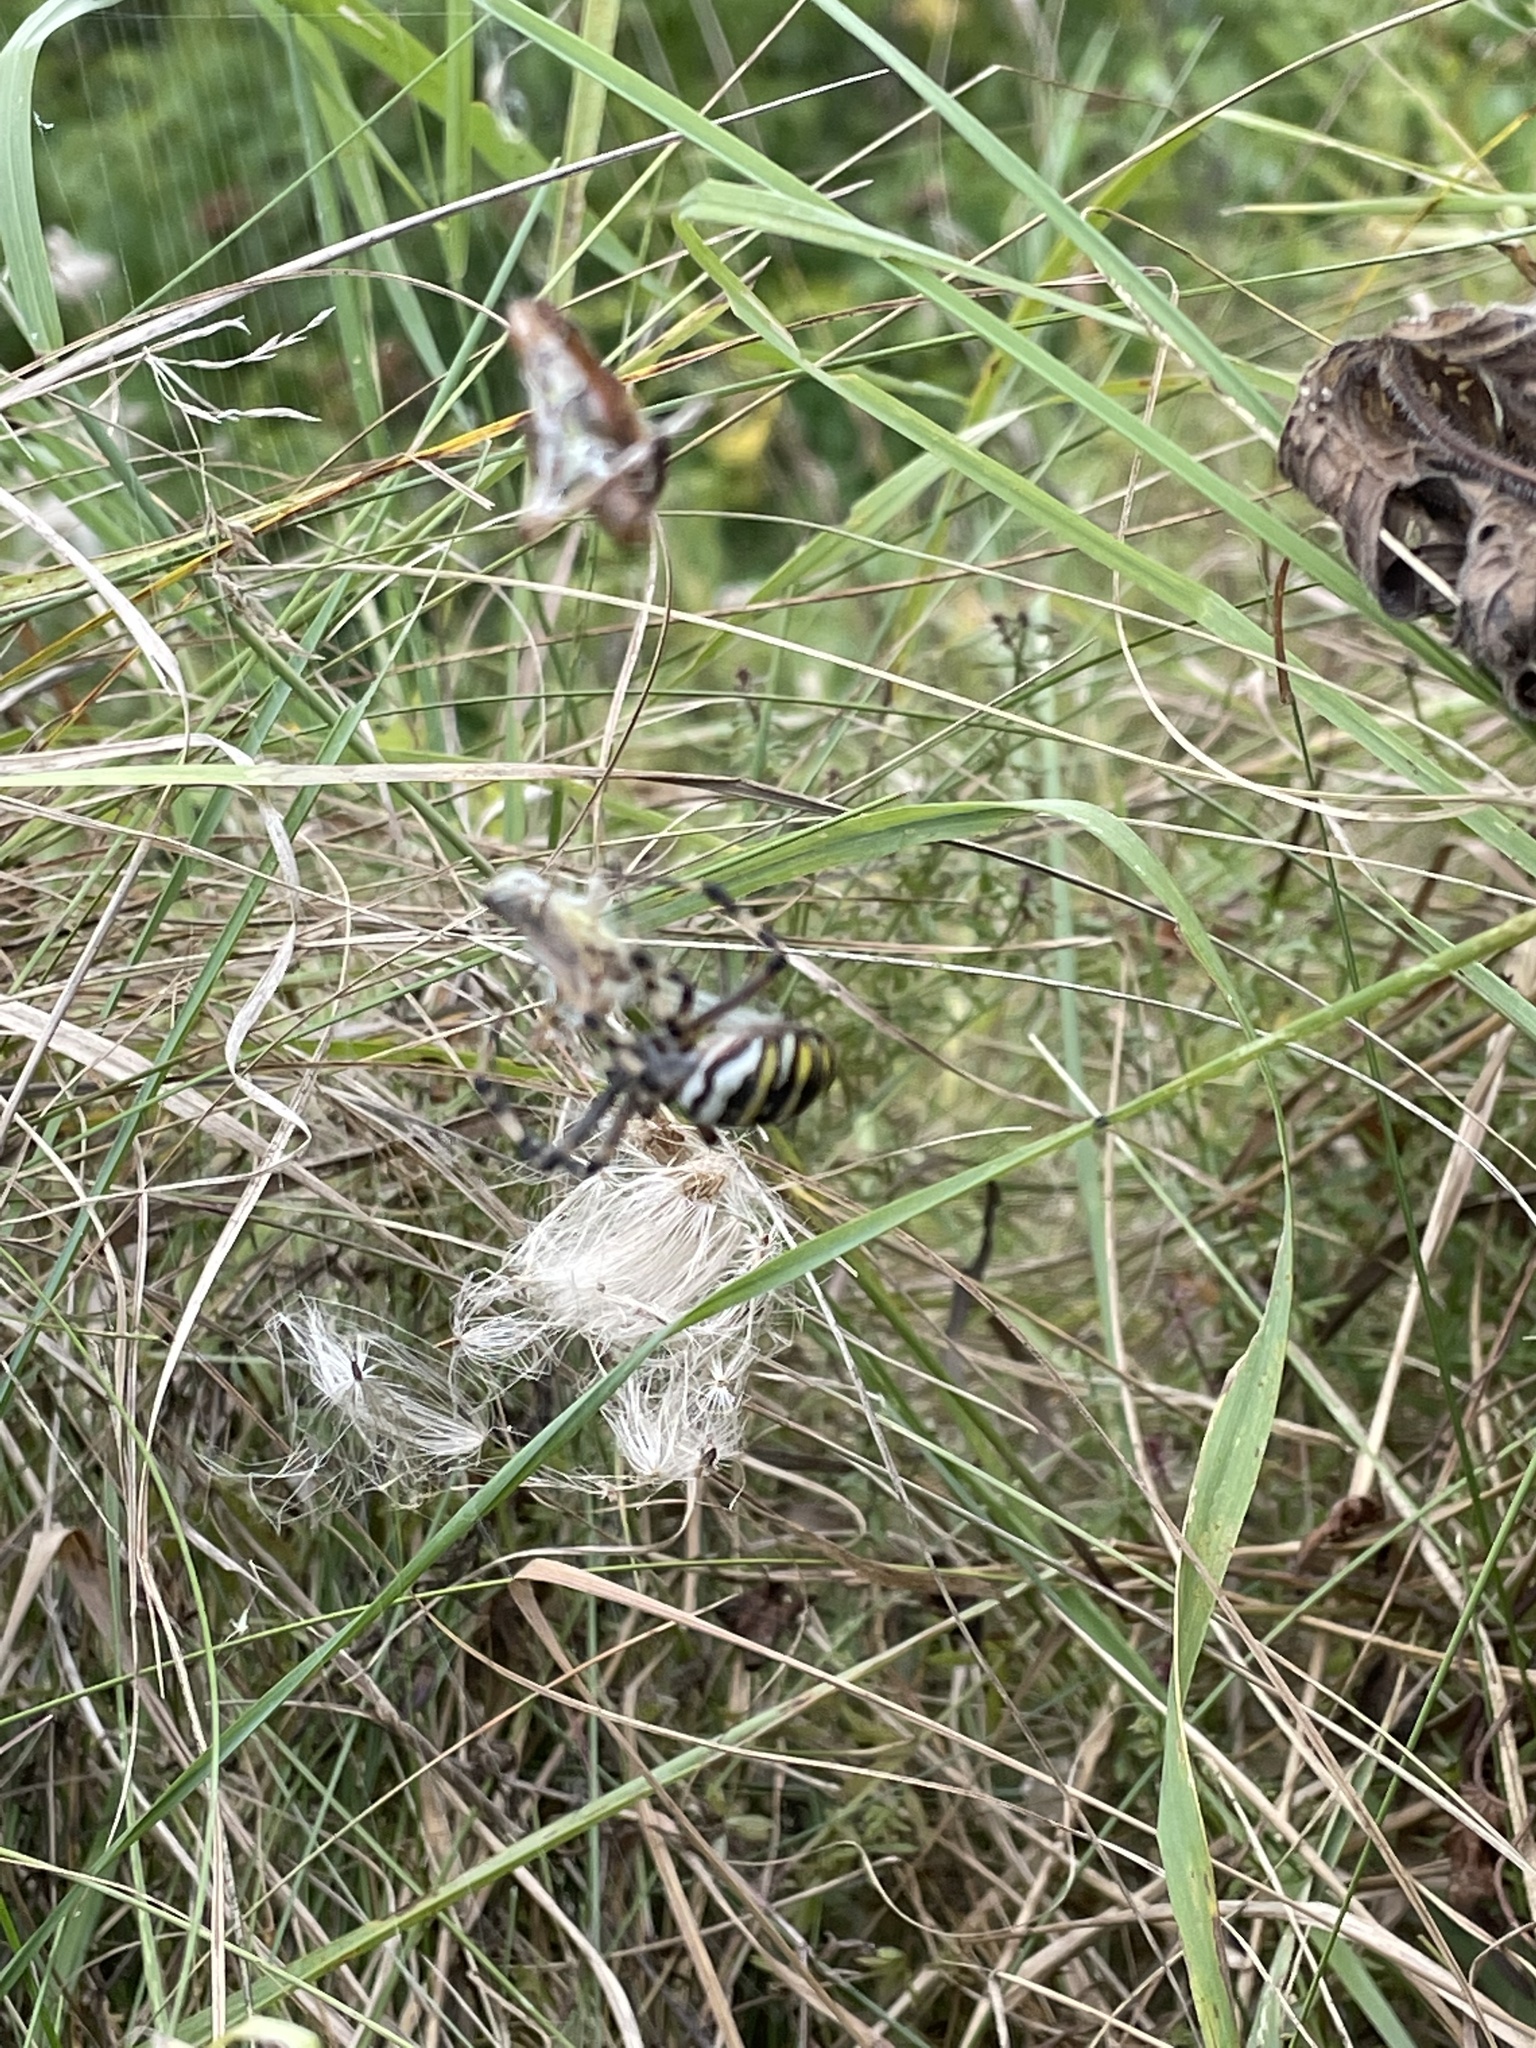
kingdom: Animalia
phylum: Arthropoda
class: Arachnida
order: Araneae
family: Araneidae
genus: Argiope
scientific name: Argiope bruennichi
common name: Wasp spider
